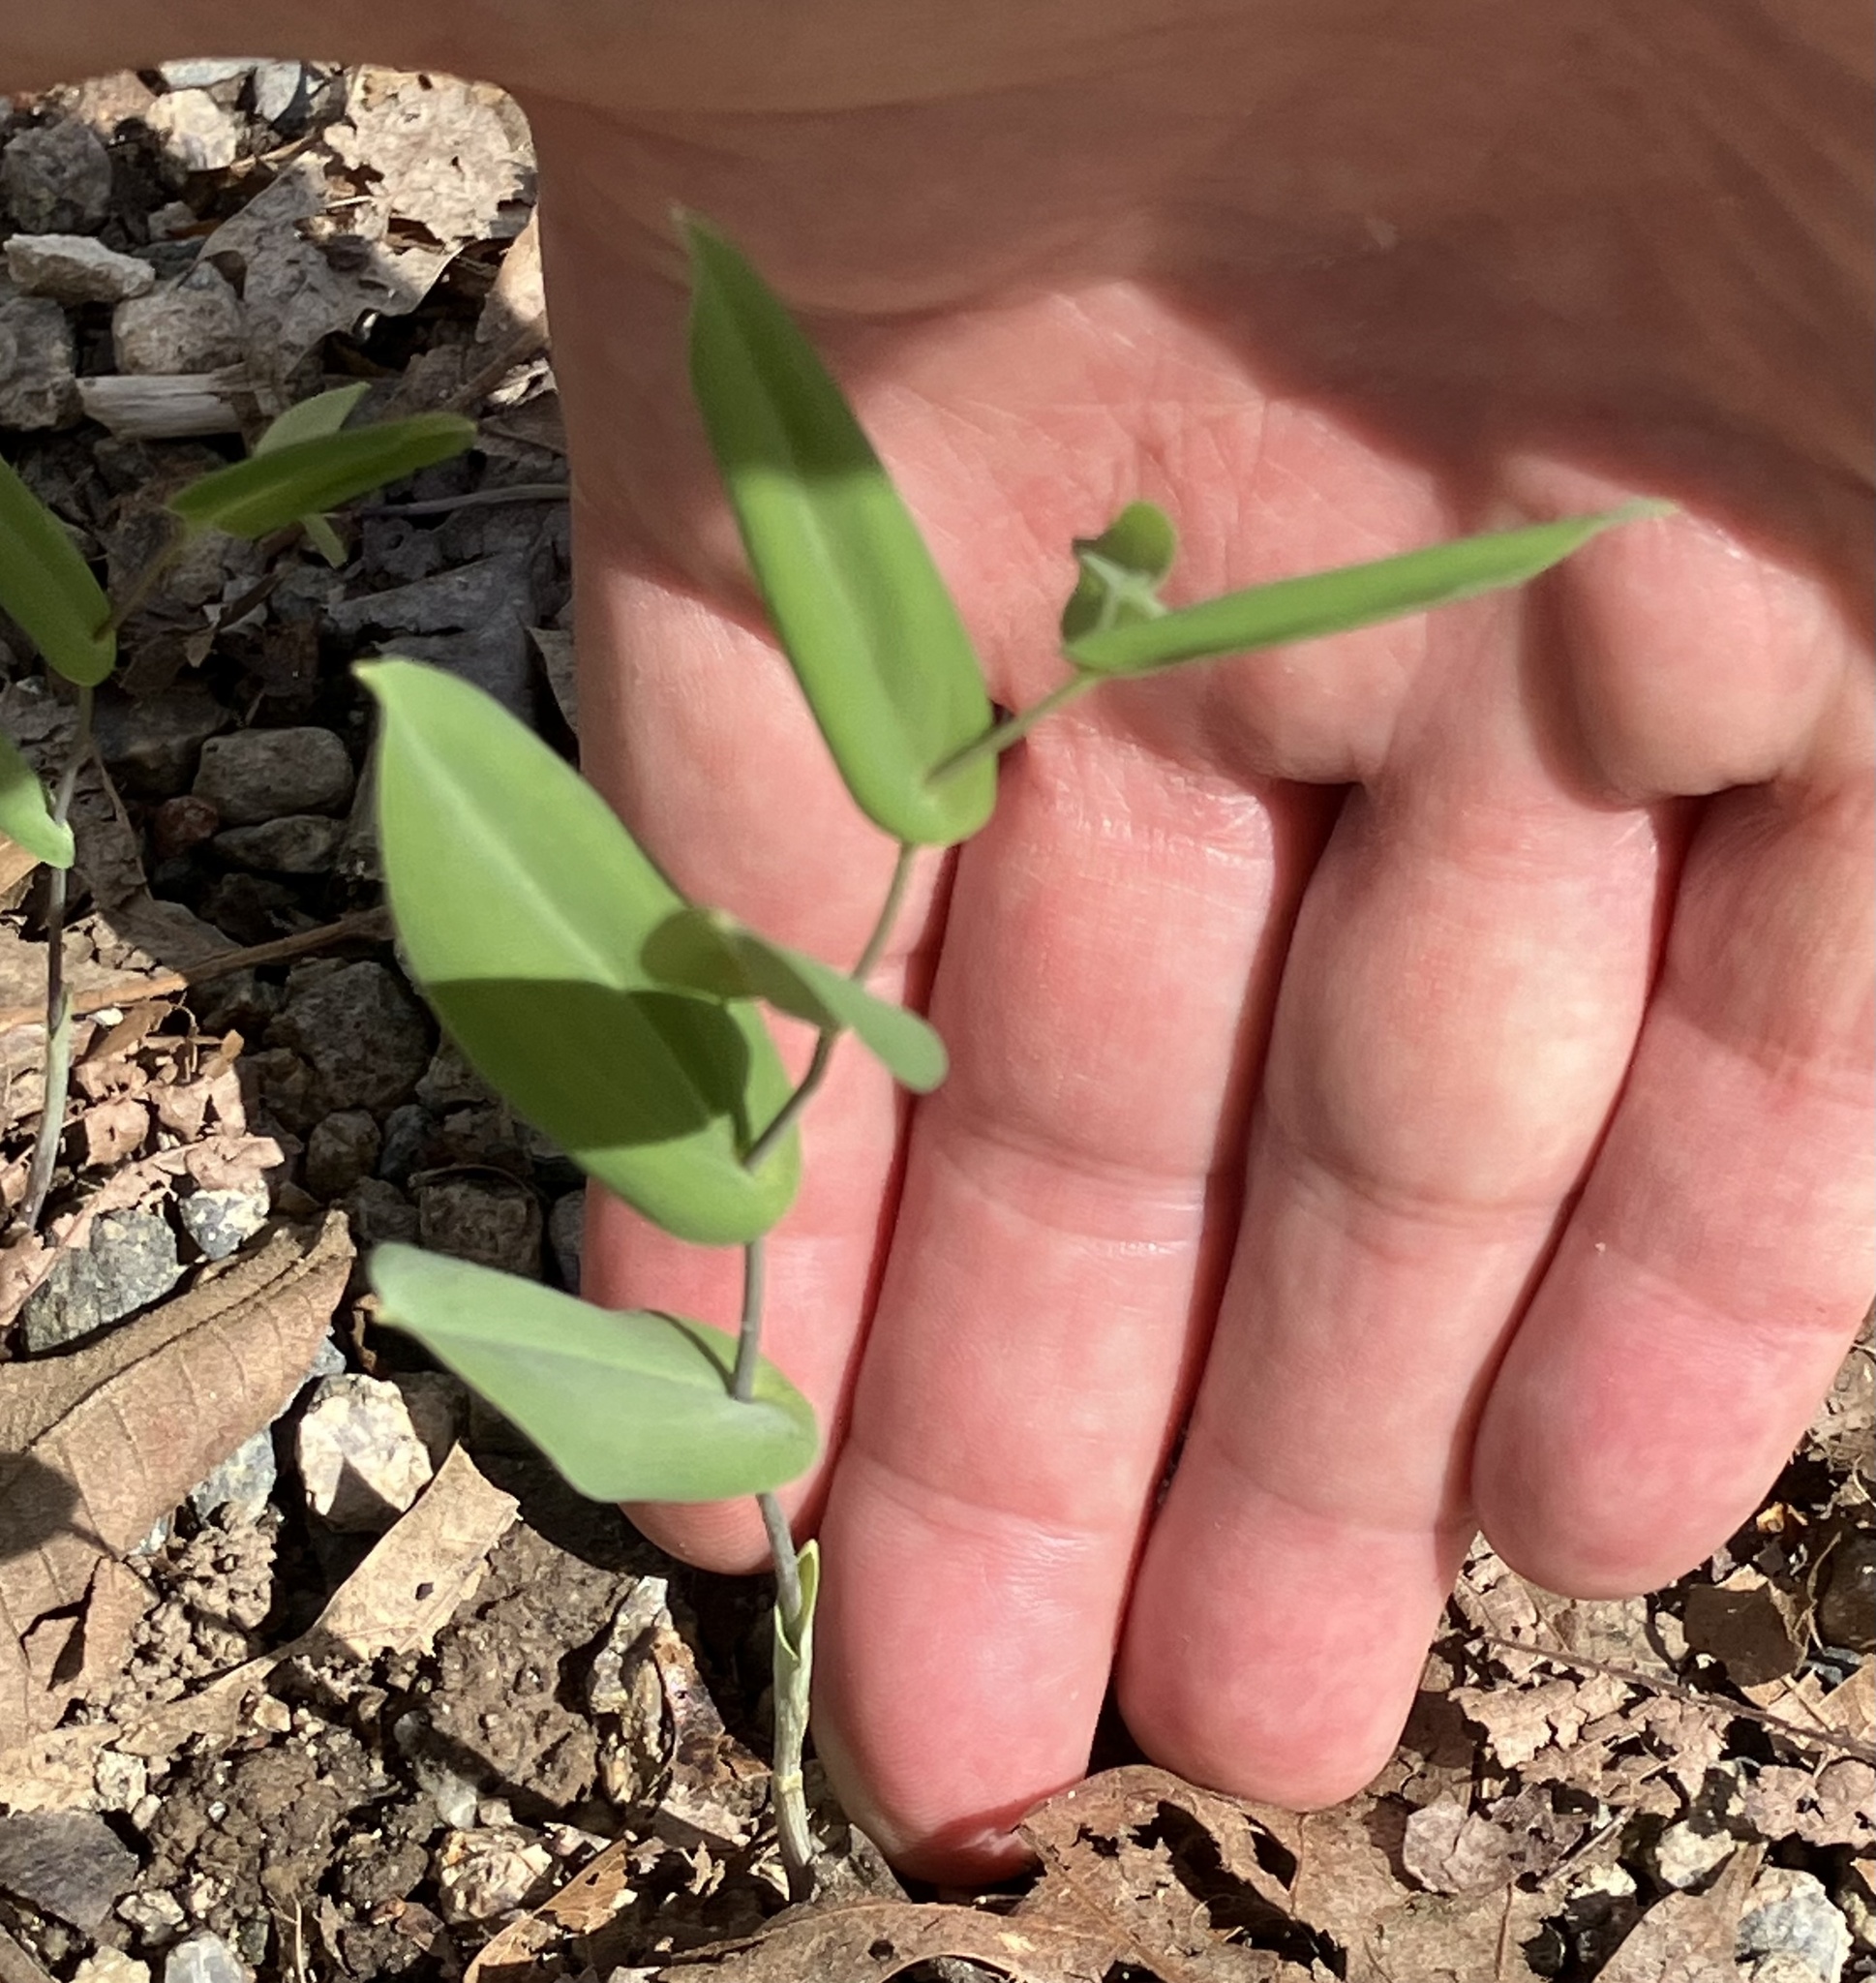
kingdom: Plantae
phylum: Tracheophyta
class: Liliopsida
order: Liliales
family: Colchicaceae
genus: Uvularia
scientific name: Uvularia perfoliata
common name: Perfoliate bellwort
